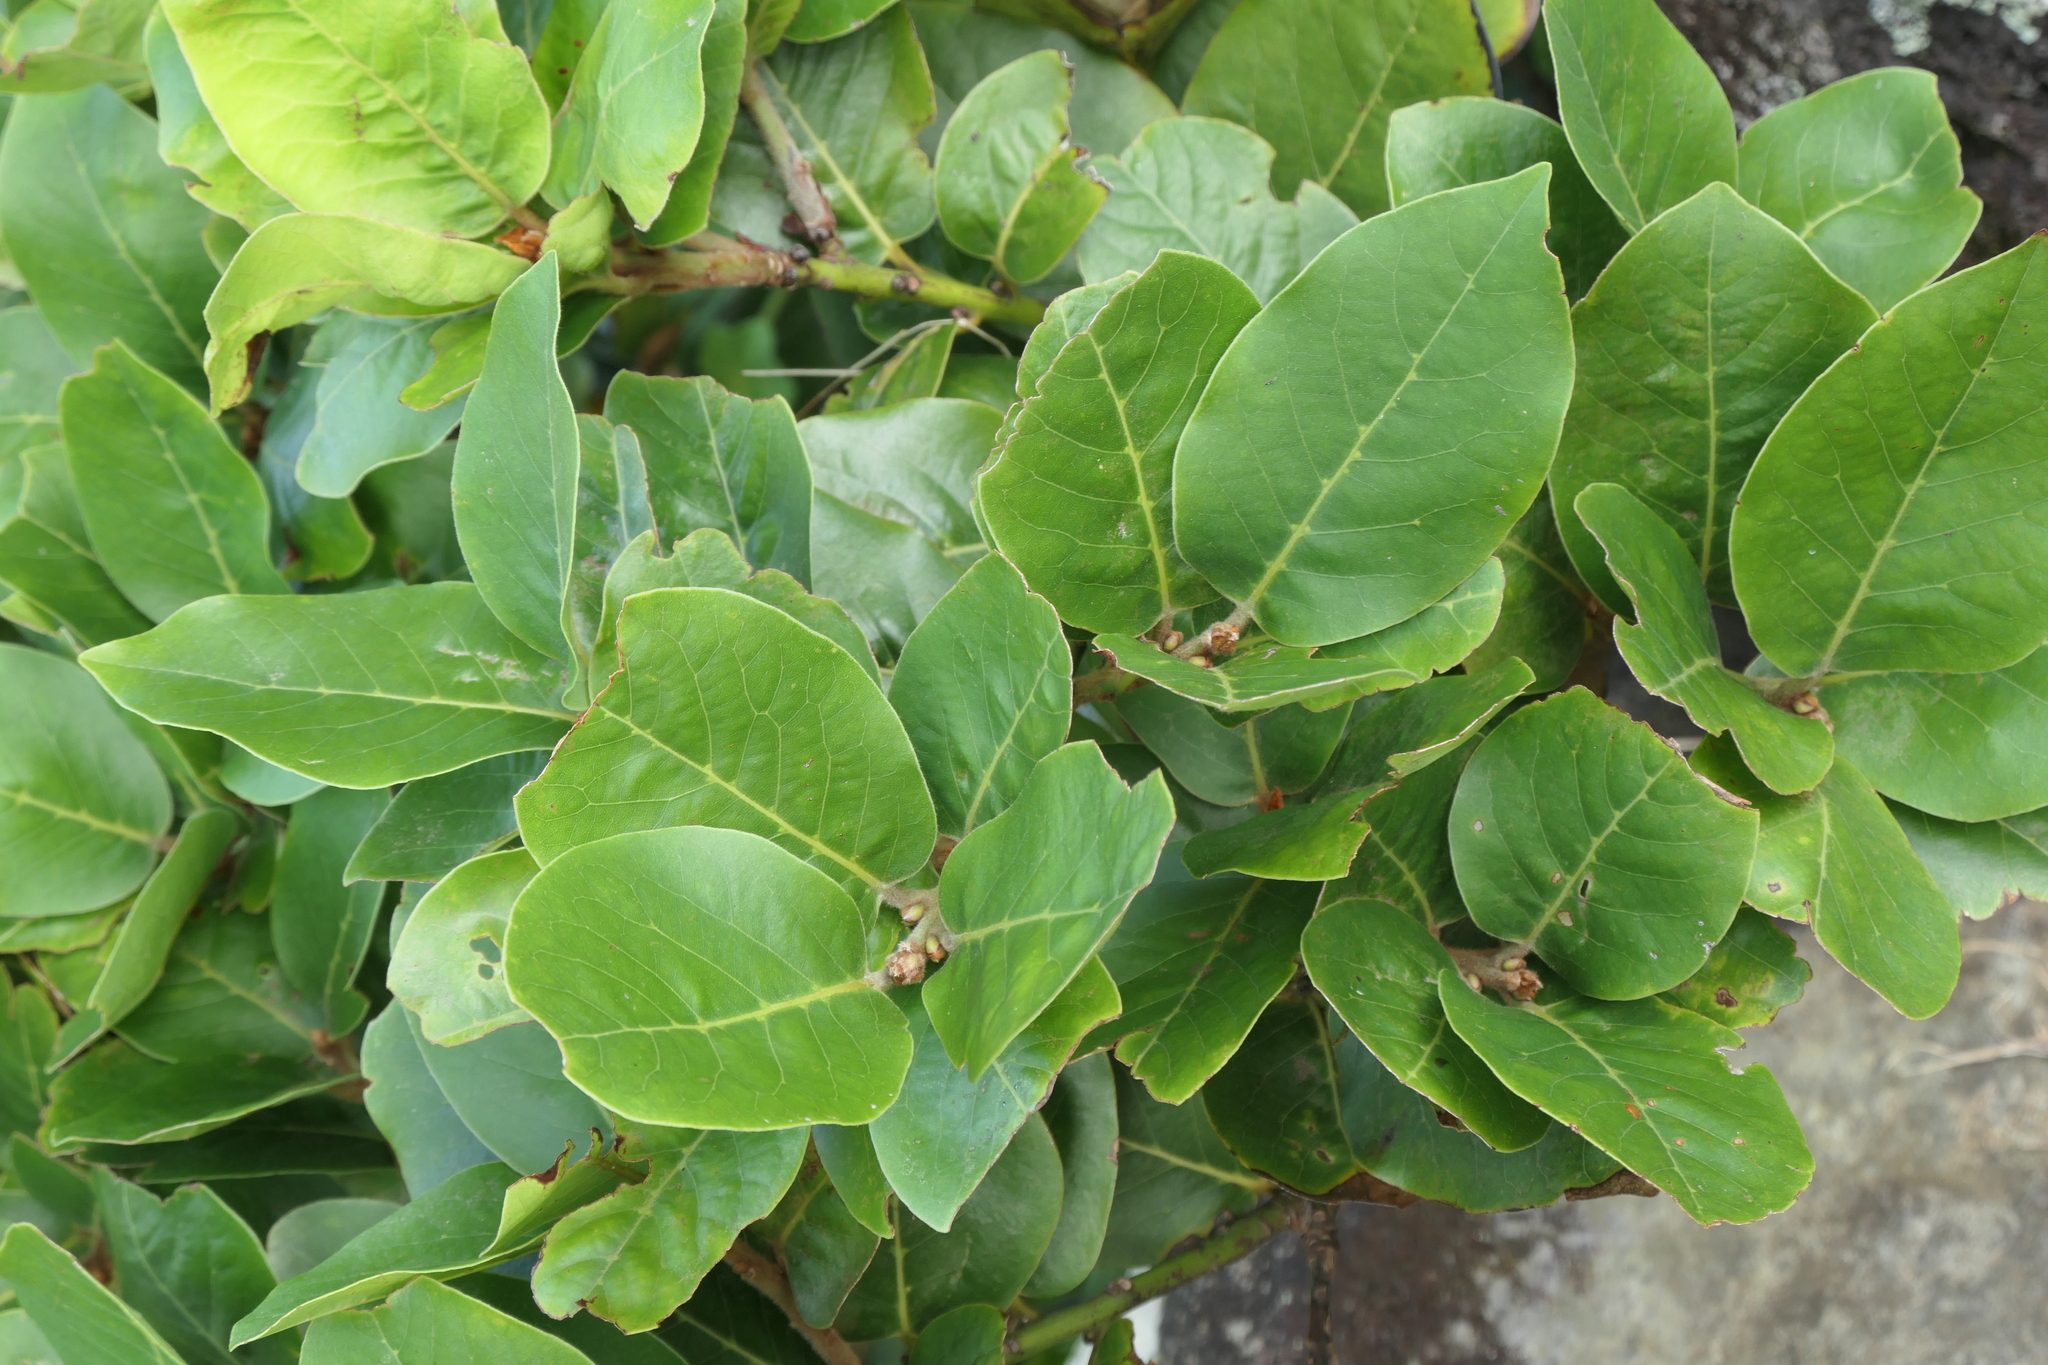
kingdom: Plantae
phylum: Tracheophyta
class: Magnoliopsida
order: Laurales
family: Lauraceae
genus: Laurus
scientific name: Laurus azorica
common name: Macaronesian laurel
